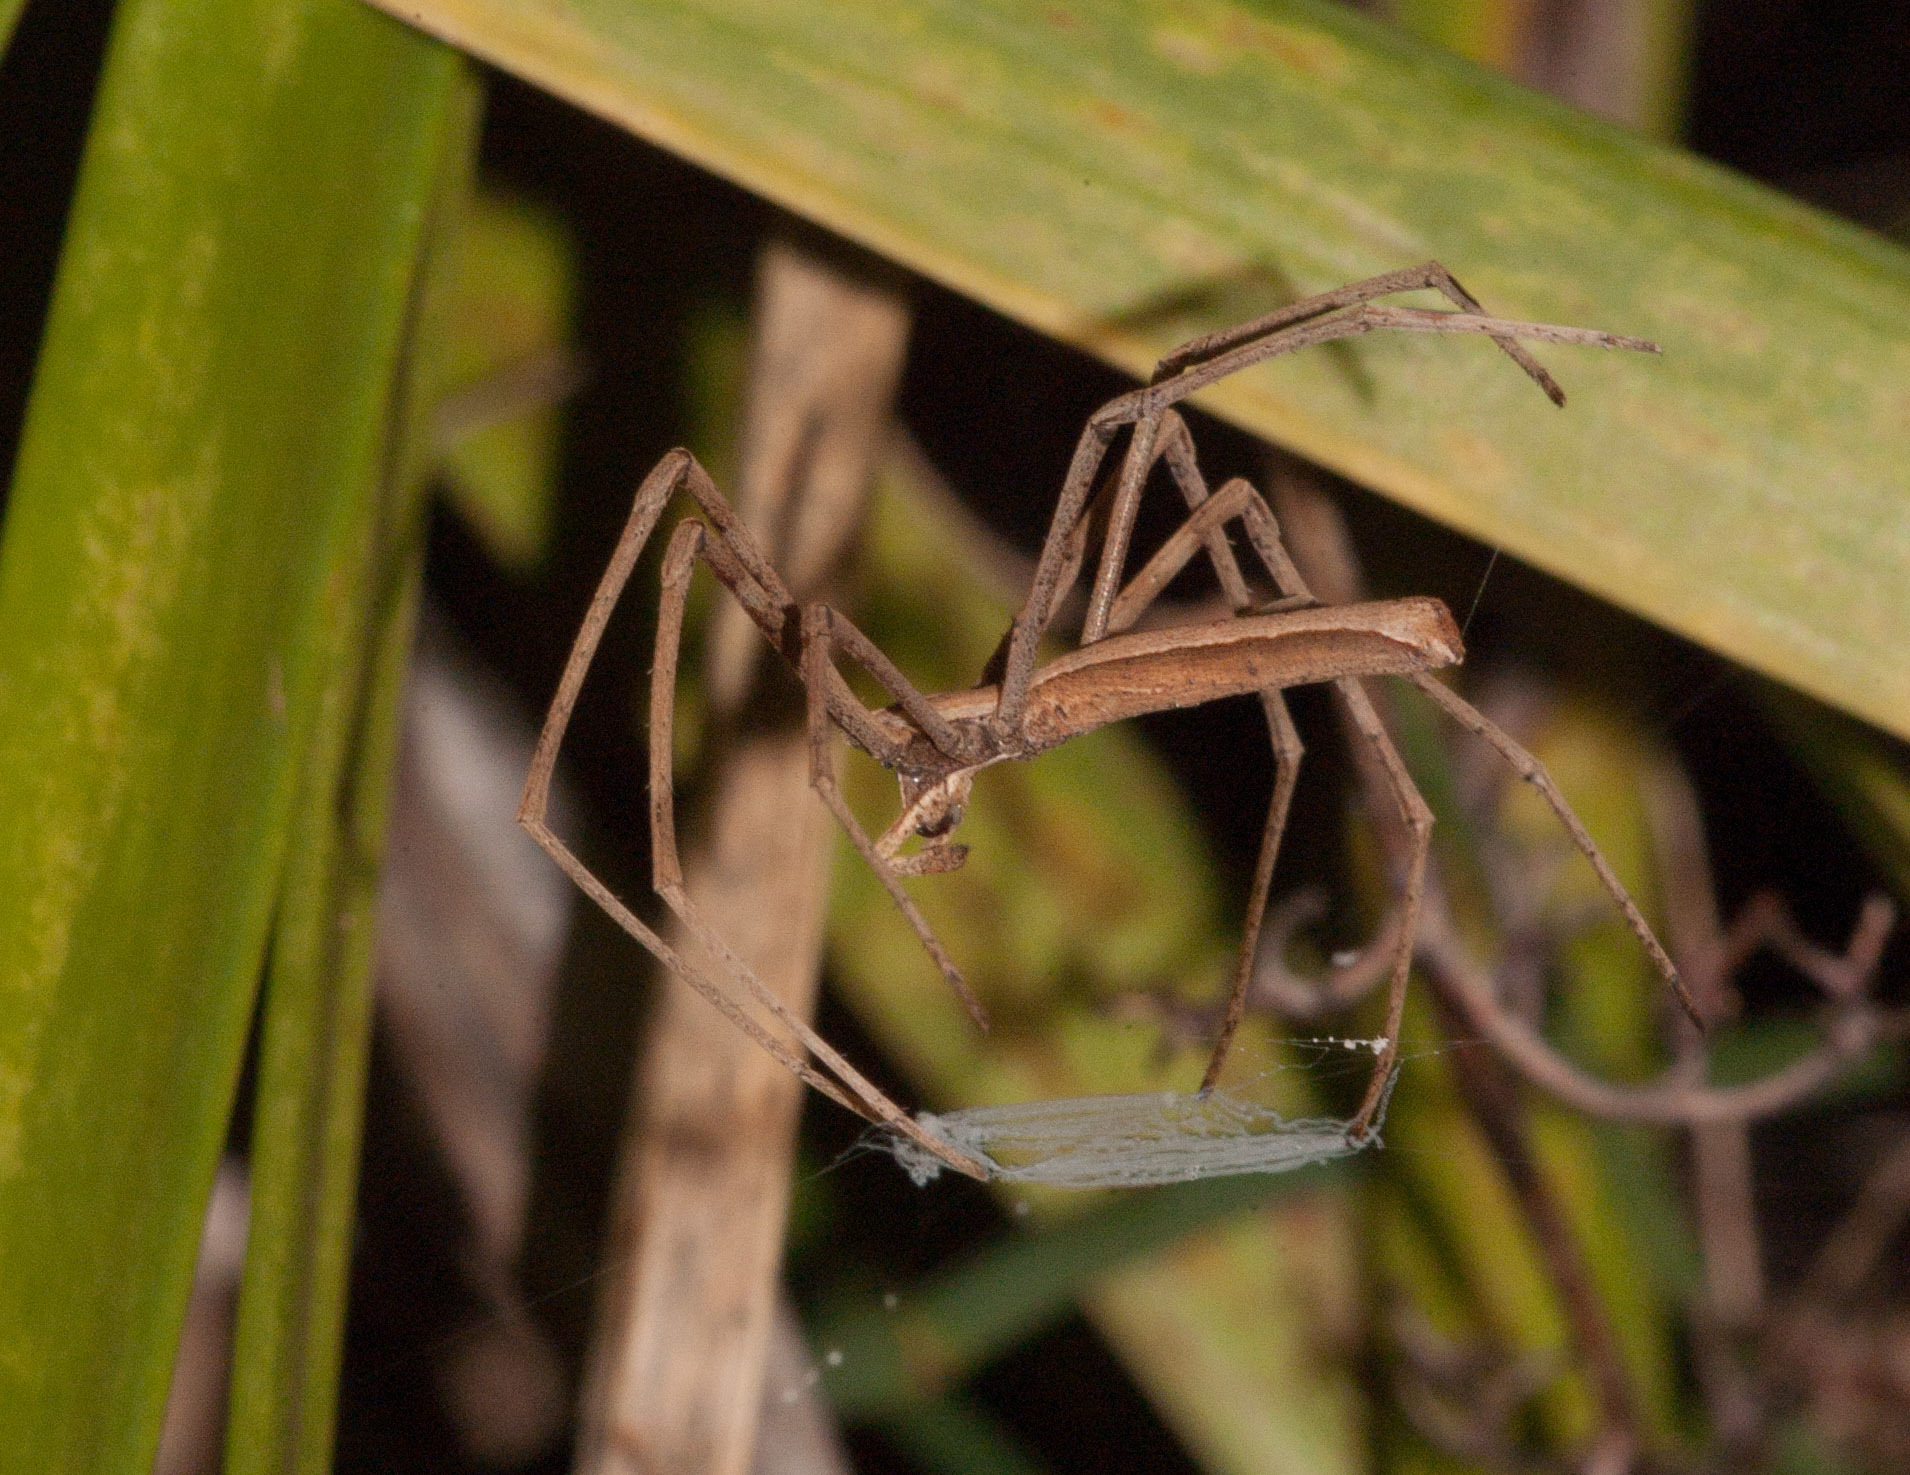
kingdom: Animalia
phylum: Arthropoda
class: Arachnida
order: Araneae
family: Deinopidae
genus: Deinopis
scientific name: Deinopis subrufa
